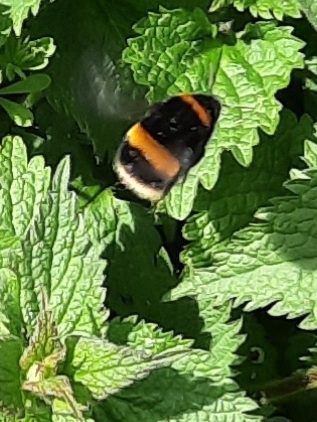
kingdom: Animalia
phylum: Arthropoda
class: Insecta
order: Hymenoptera
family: Apidae
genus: Bombus
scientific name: Bombus pascuorum
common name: Common carder bee
